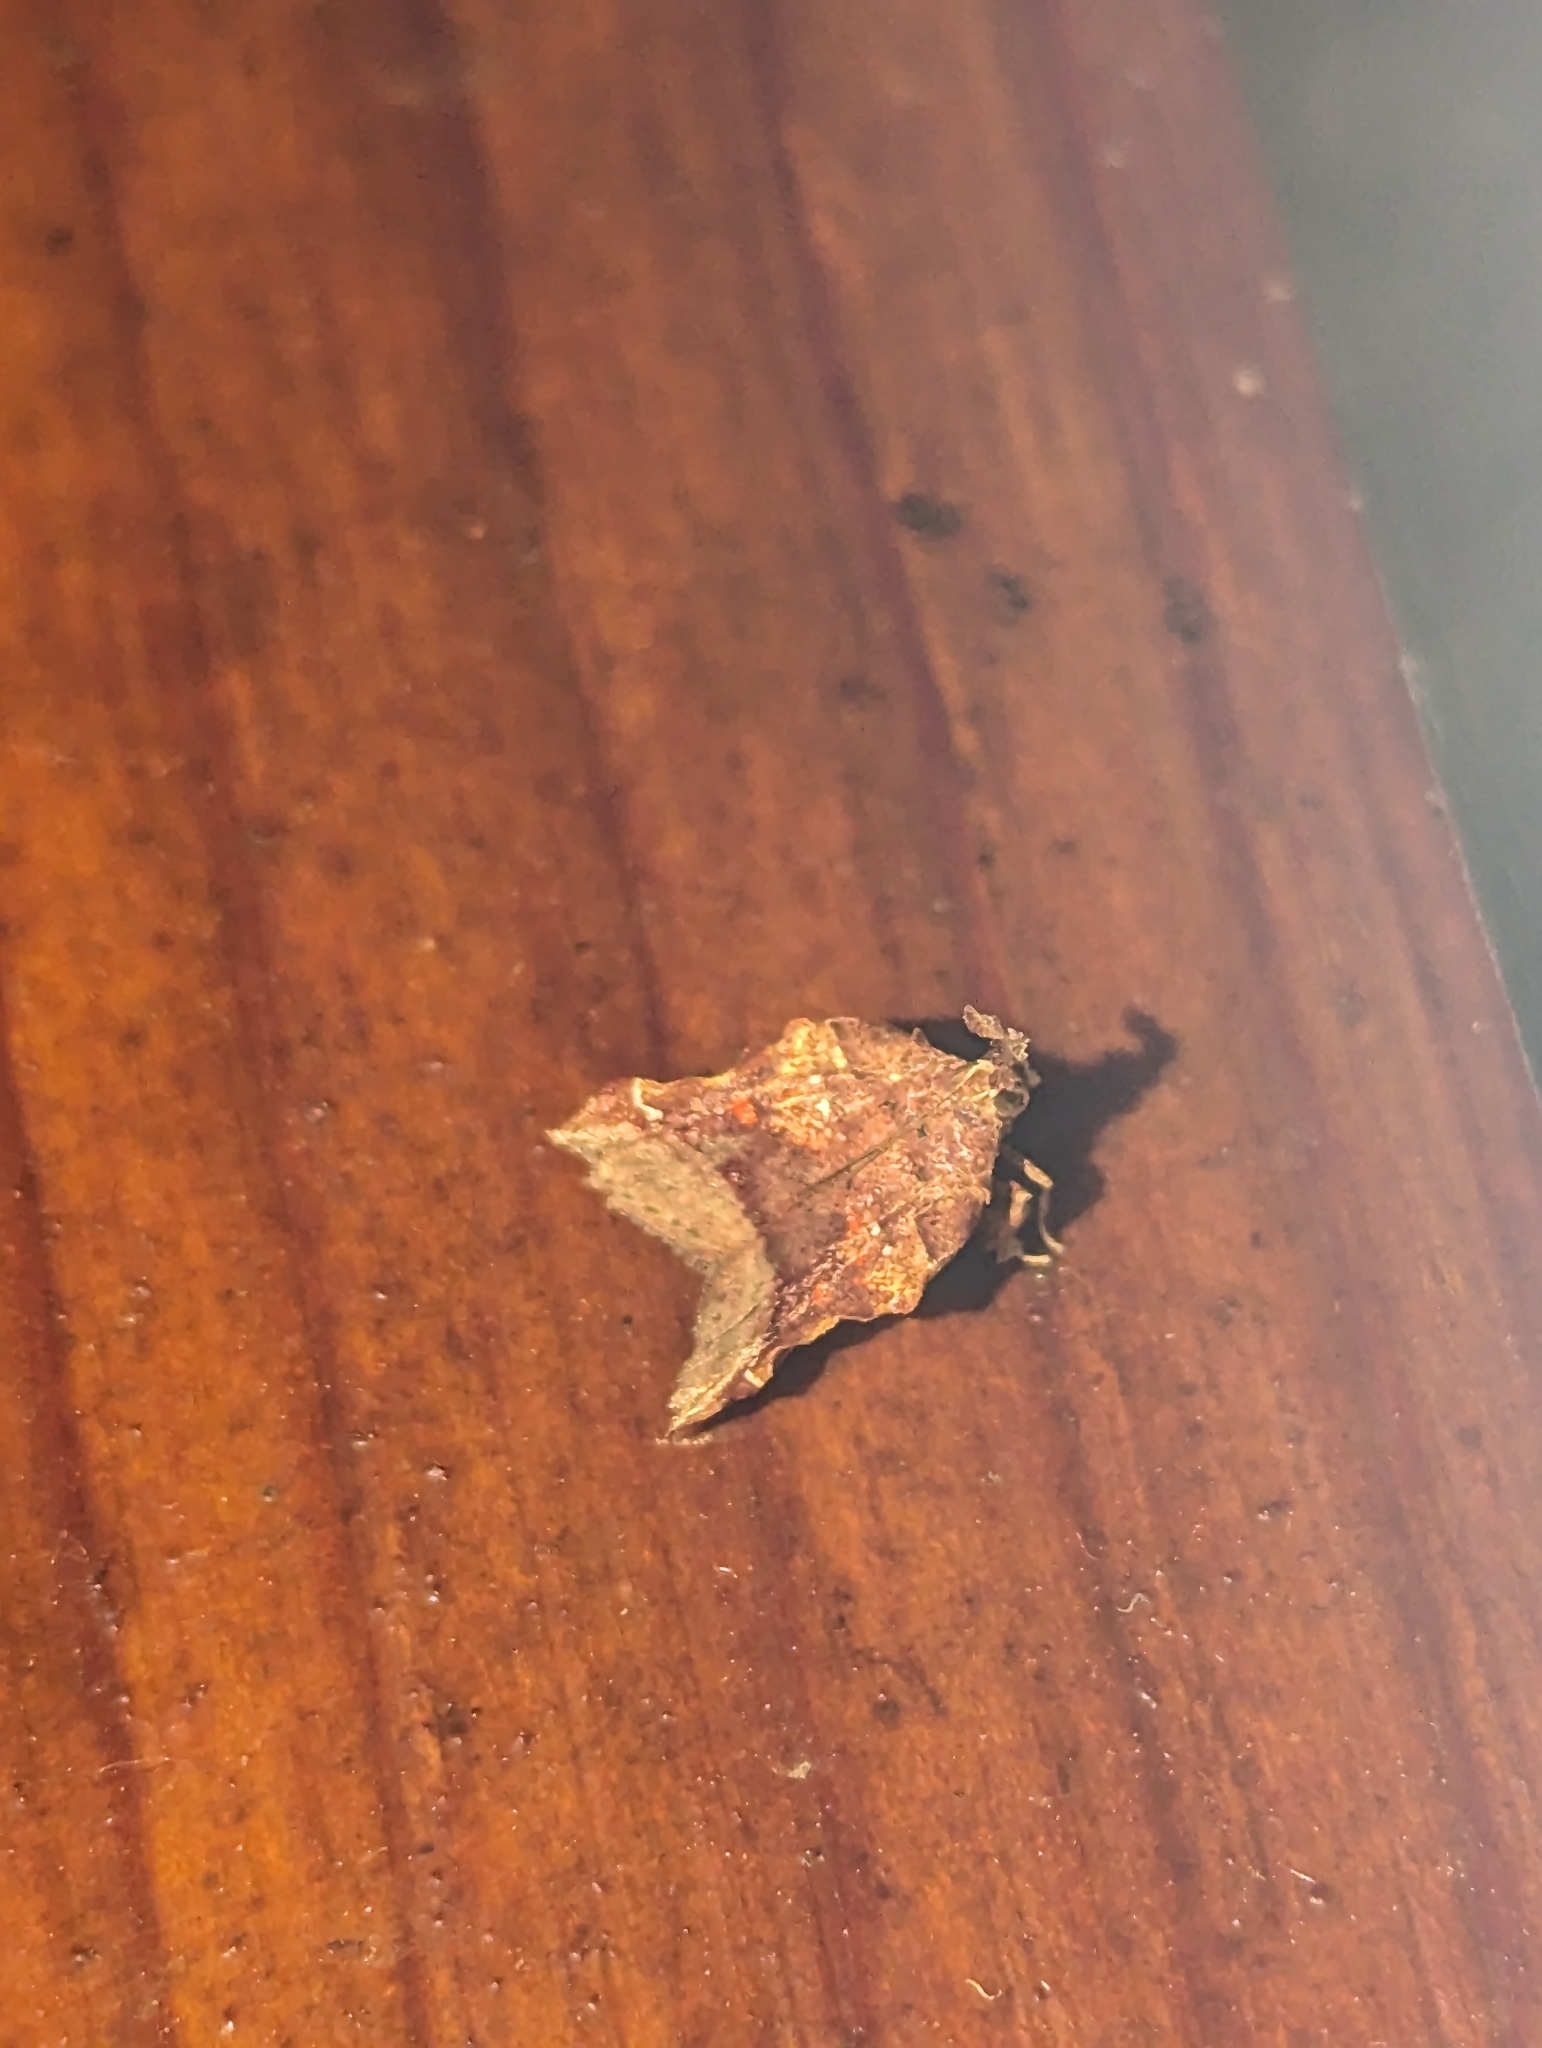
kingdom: Animalia
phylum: Arthropoda
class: Insecta
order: Lepidoptera
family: Pyralidae
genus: Clydonopteron
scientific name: Clydonopteron sacculana
